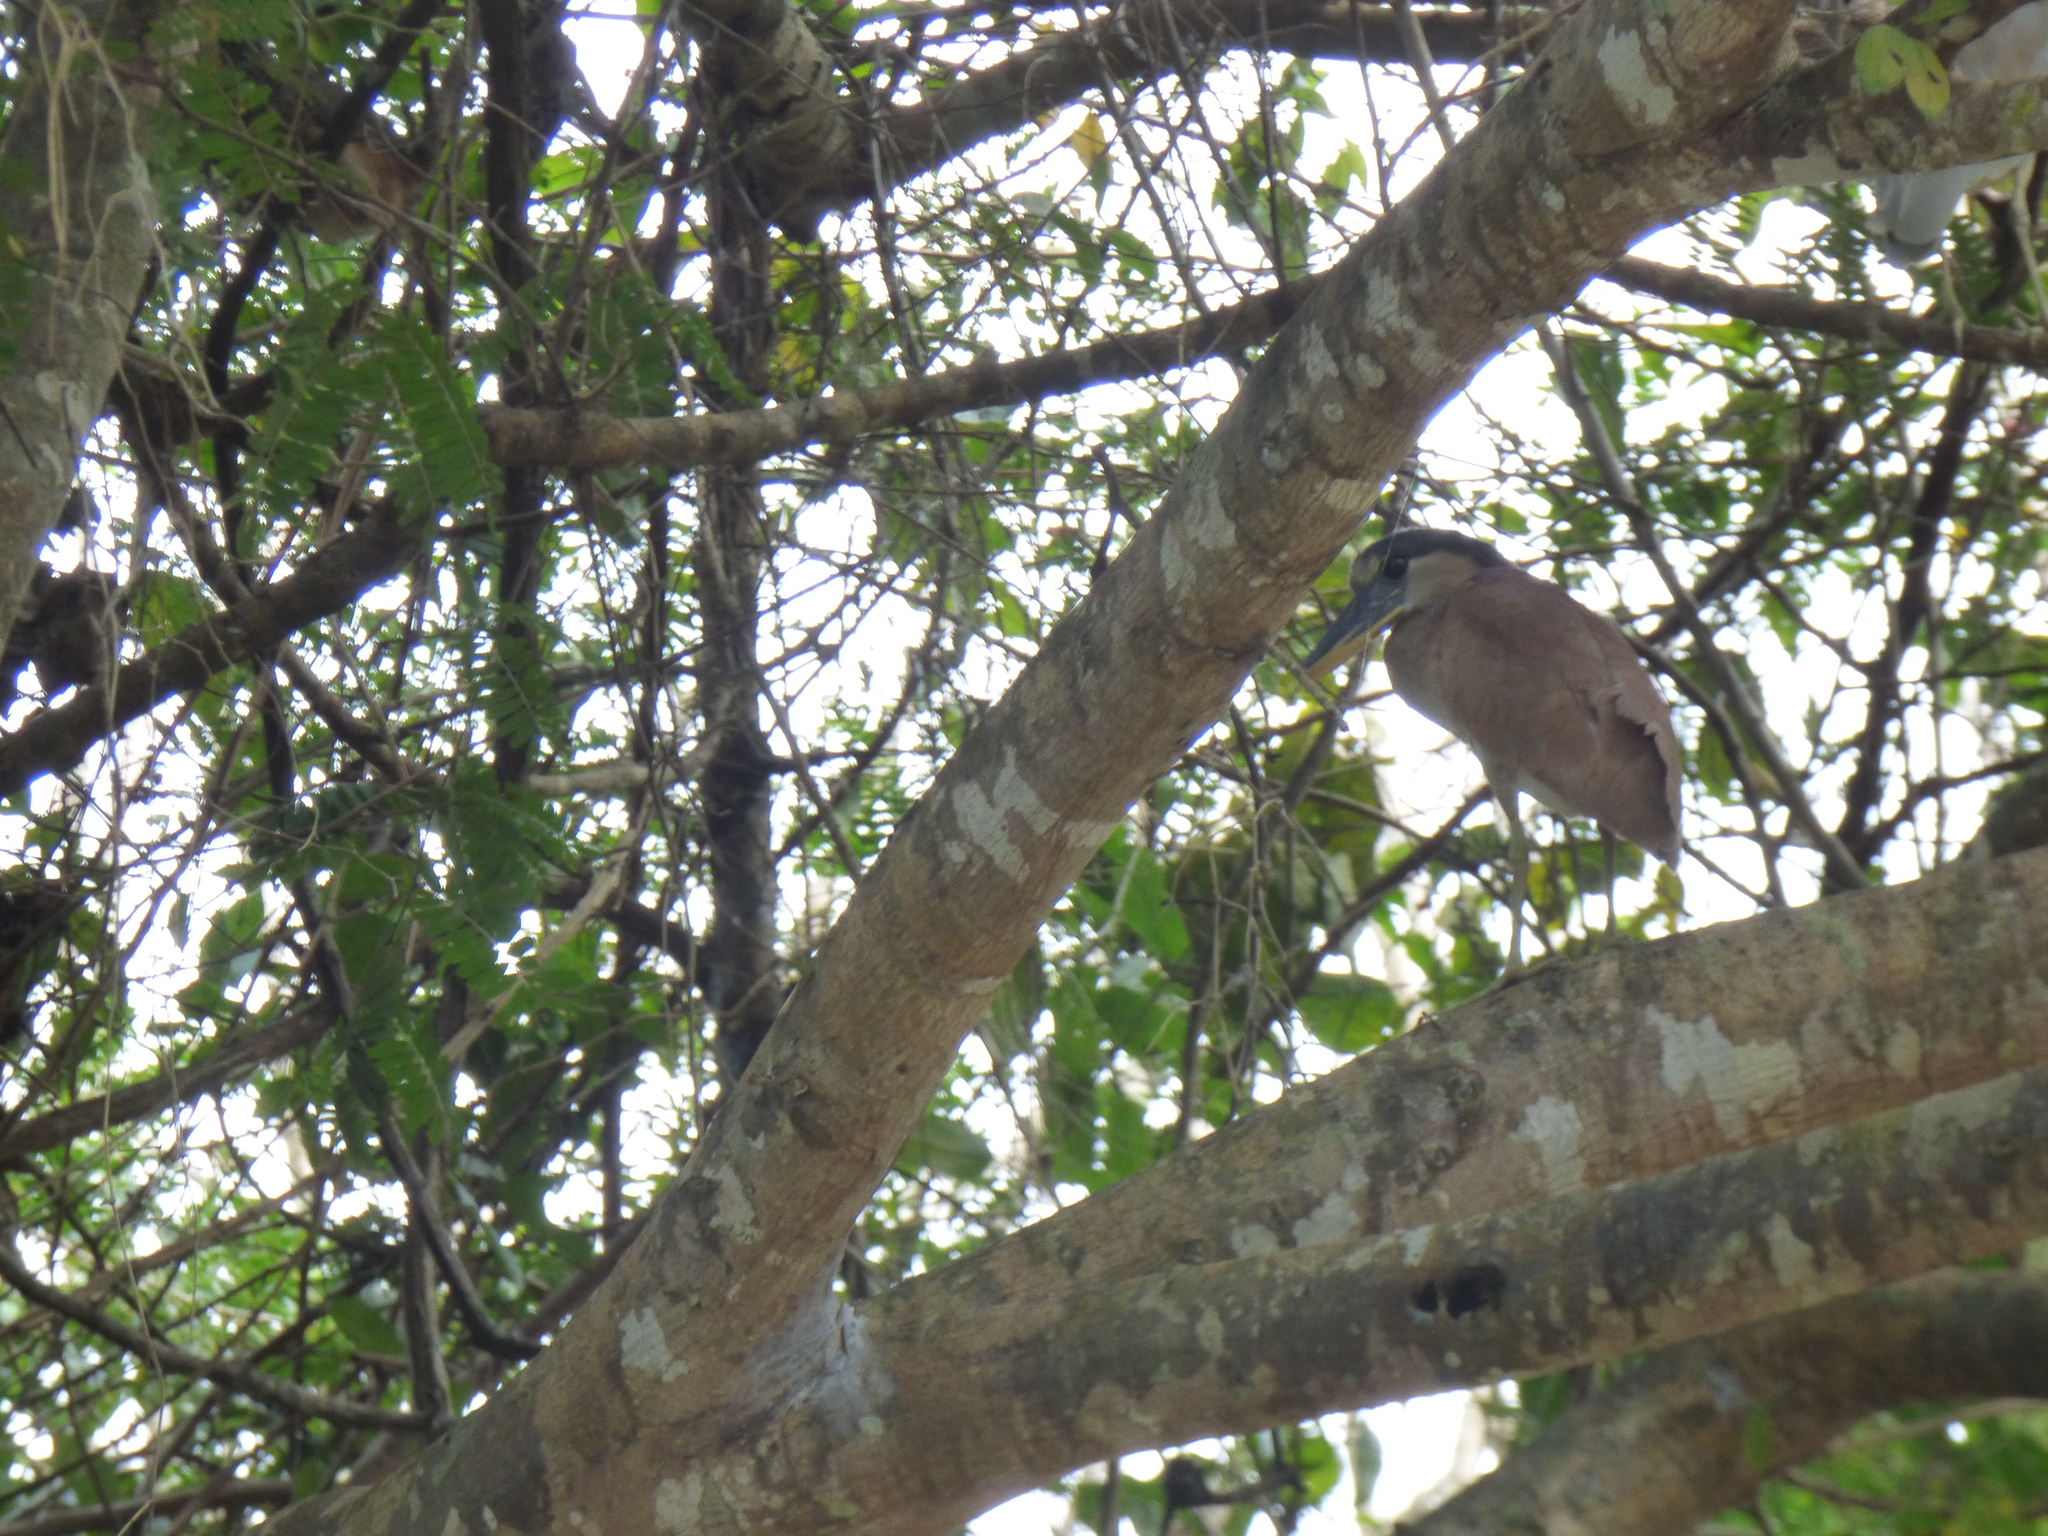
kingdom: Animalia
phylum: Chordata
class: Aves
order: Pelecaniformes
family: Ardeidae
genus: Cochlearius
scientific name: Cochlearius cochlearius
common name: Boat-billed heron
